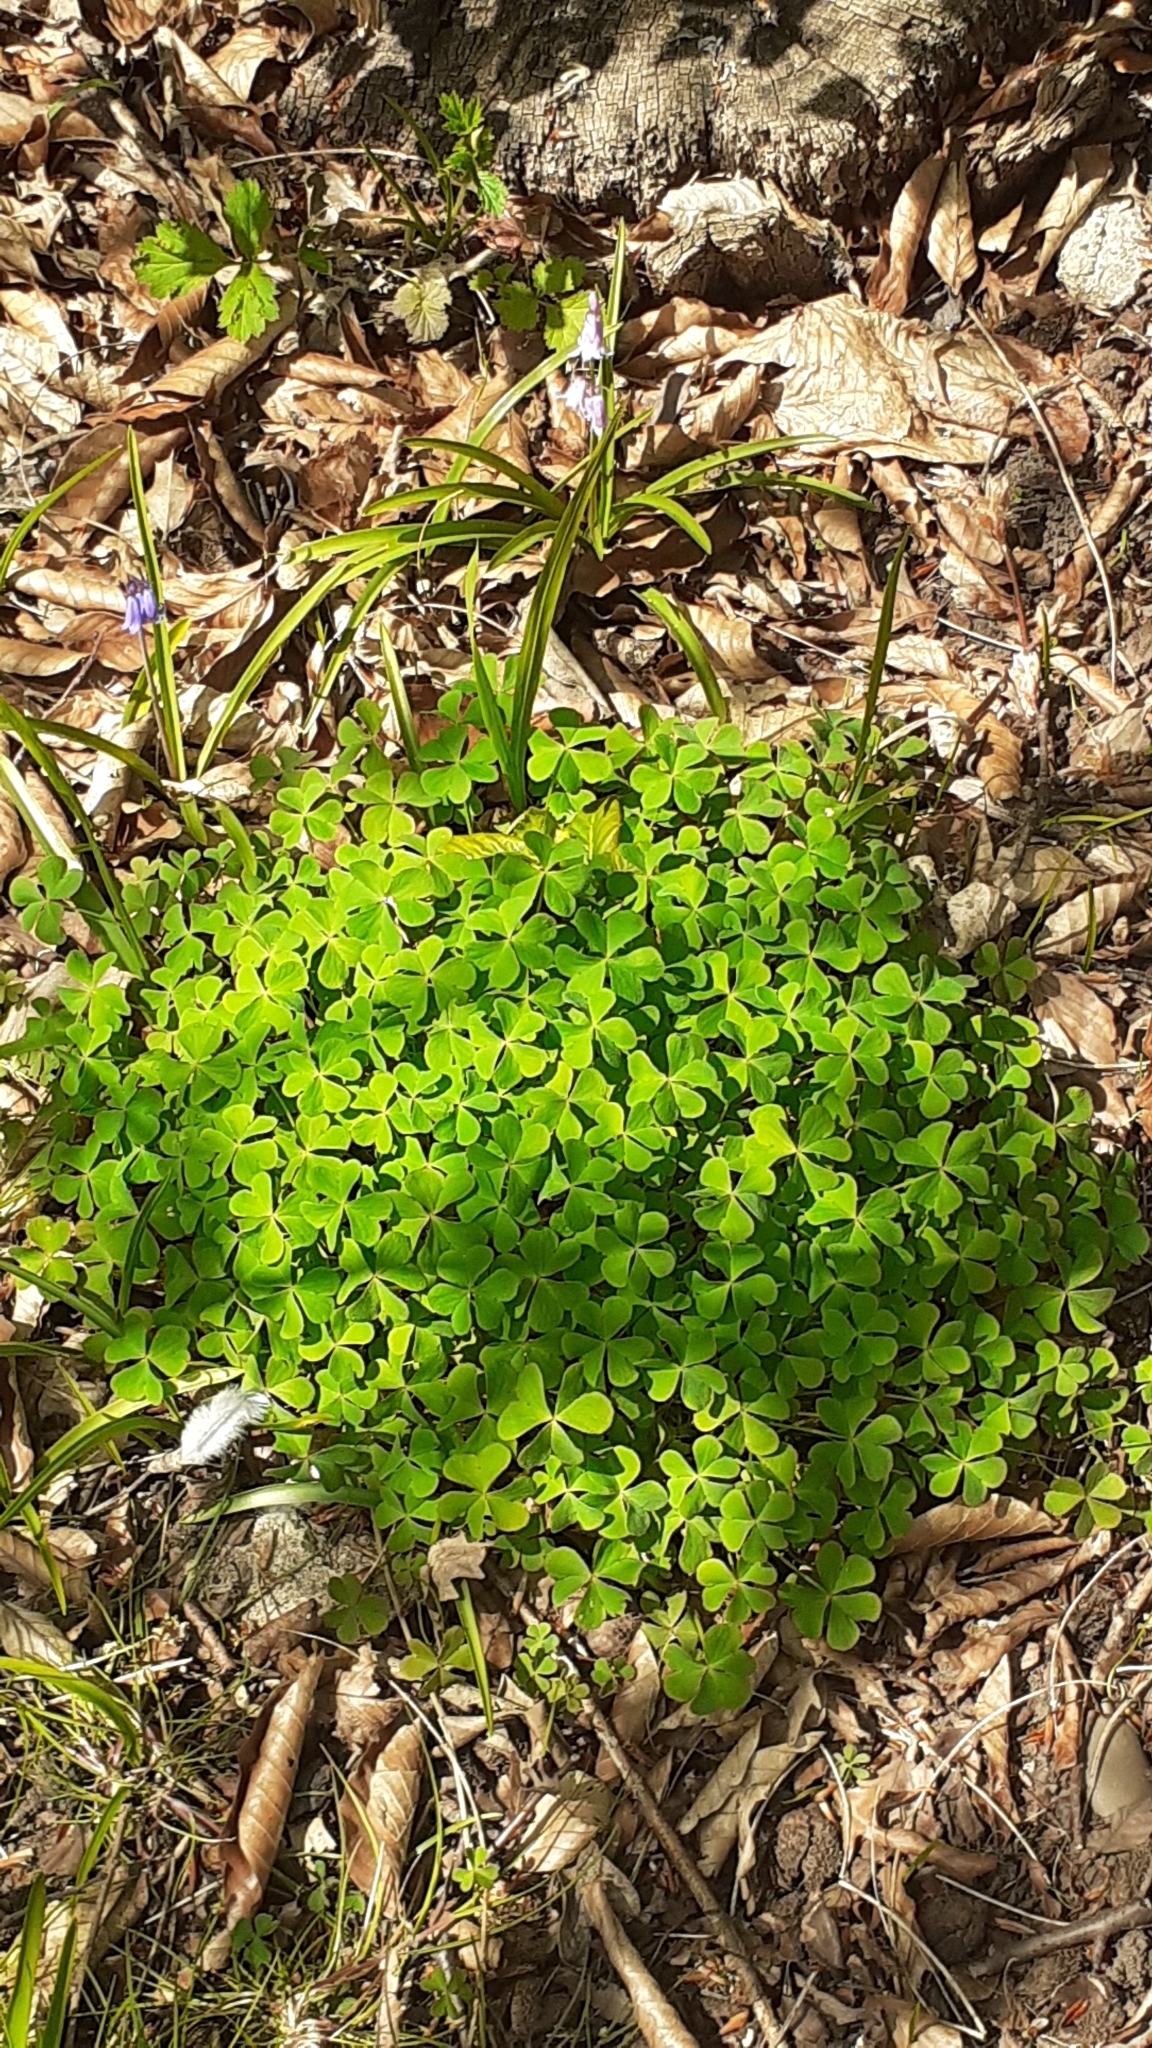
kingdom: Plantae
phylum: Tracheophyta
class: Magnoliopsida
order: Oxalidales
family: Oxalidaceae
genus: Oxalis
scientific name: Oxalis articulata
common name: Pink-sorrel
